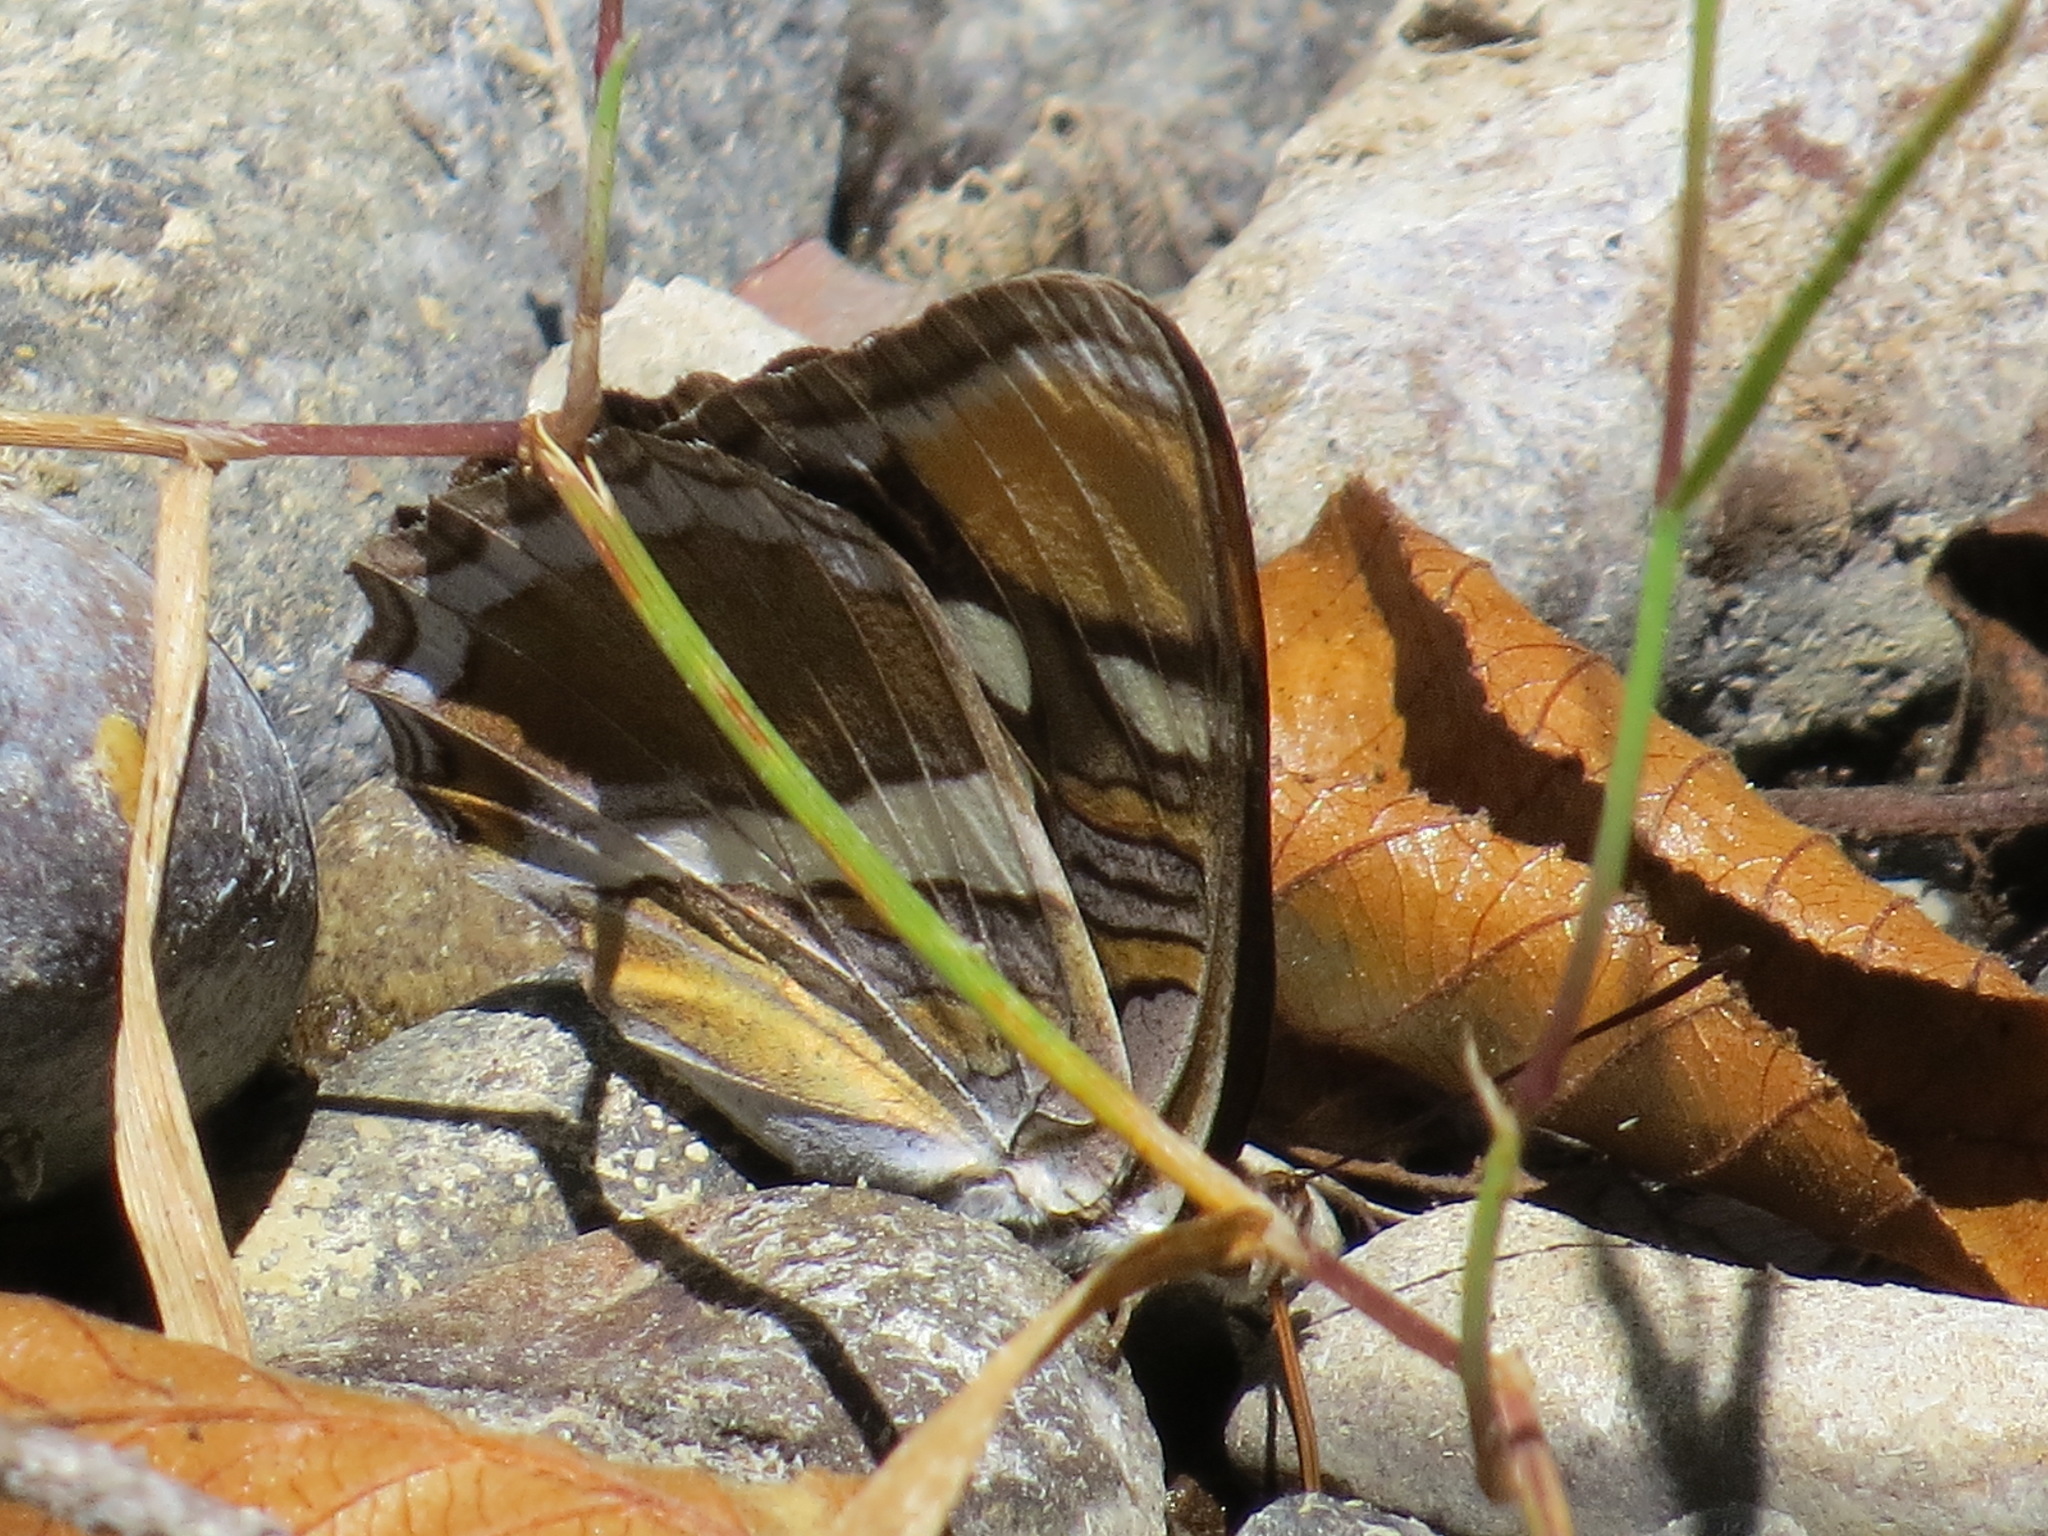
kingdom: Animalia
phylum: Arthropoda
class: Insecta
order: Lepidoptera
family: Nymphalidae
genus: Limenitis
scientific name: Limenitis bredowii
